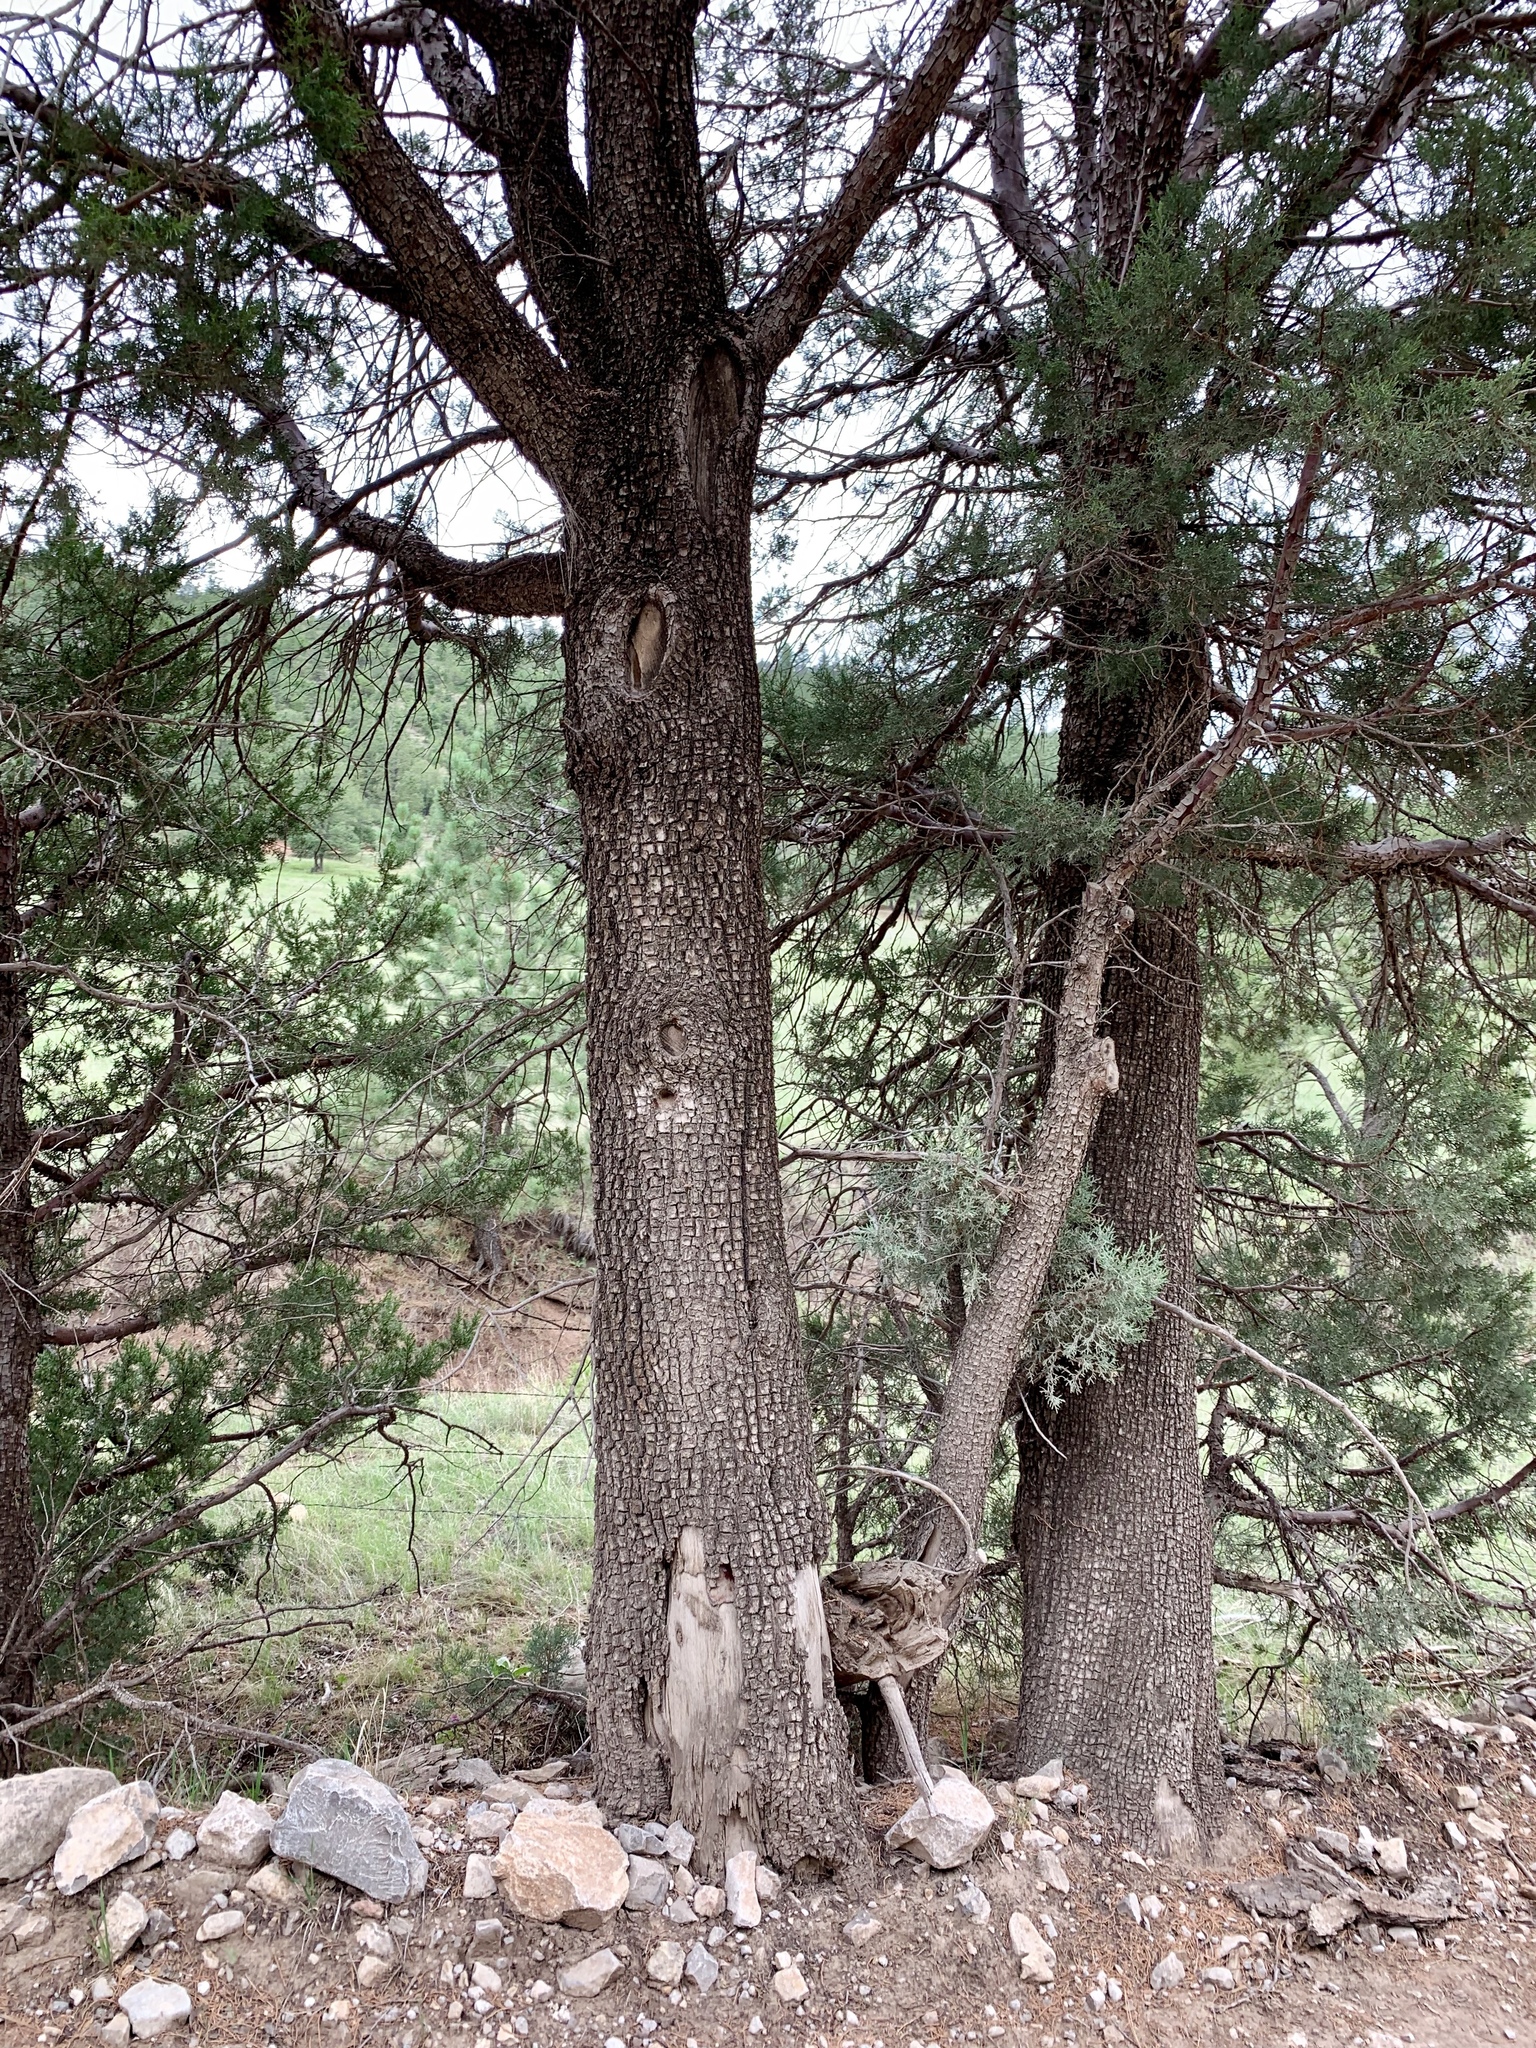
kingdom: Plantae
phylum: Tracheophyta
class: Pinopsida
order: Pinales
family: Cupressaceae
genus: Juniperus
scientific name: Juniperus deppeana
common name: Alligator juniper
